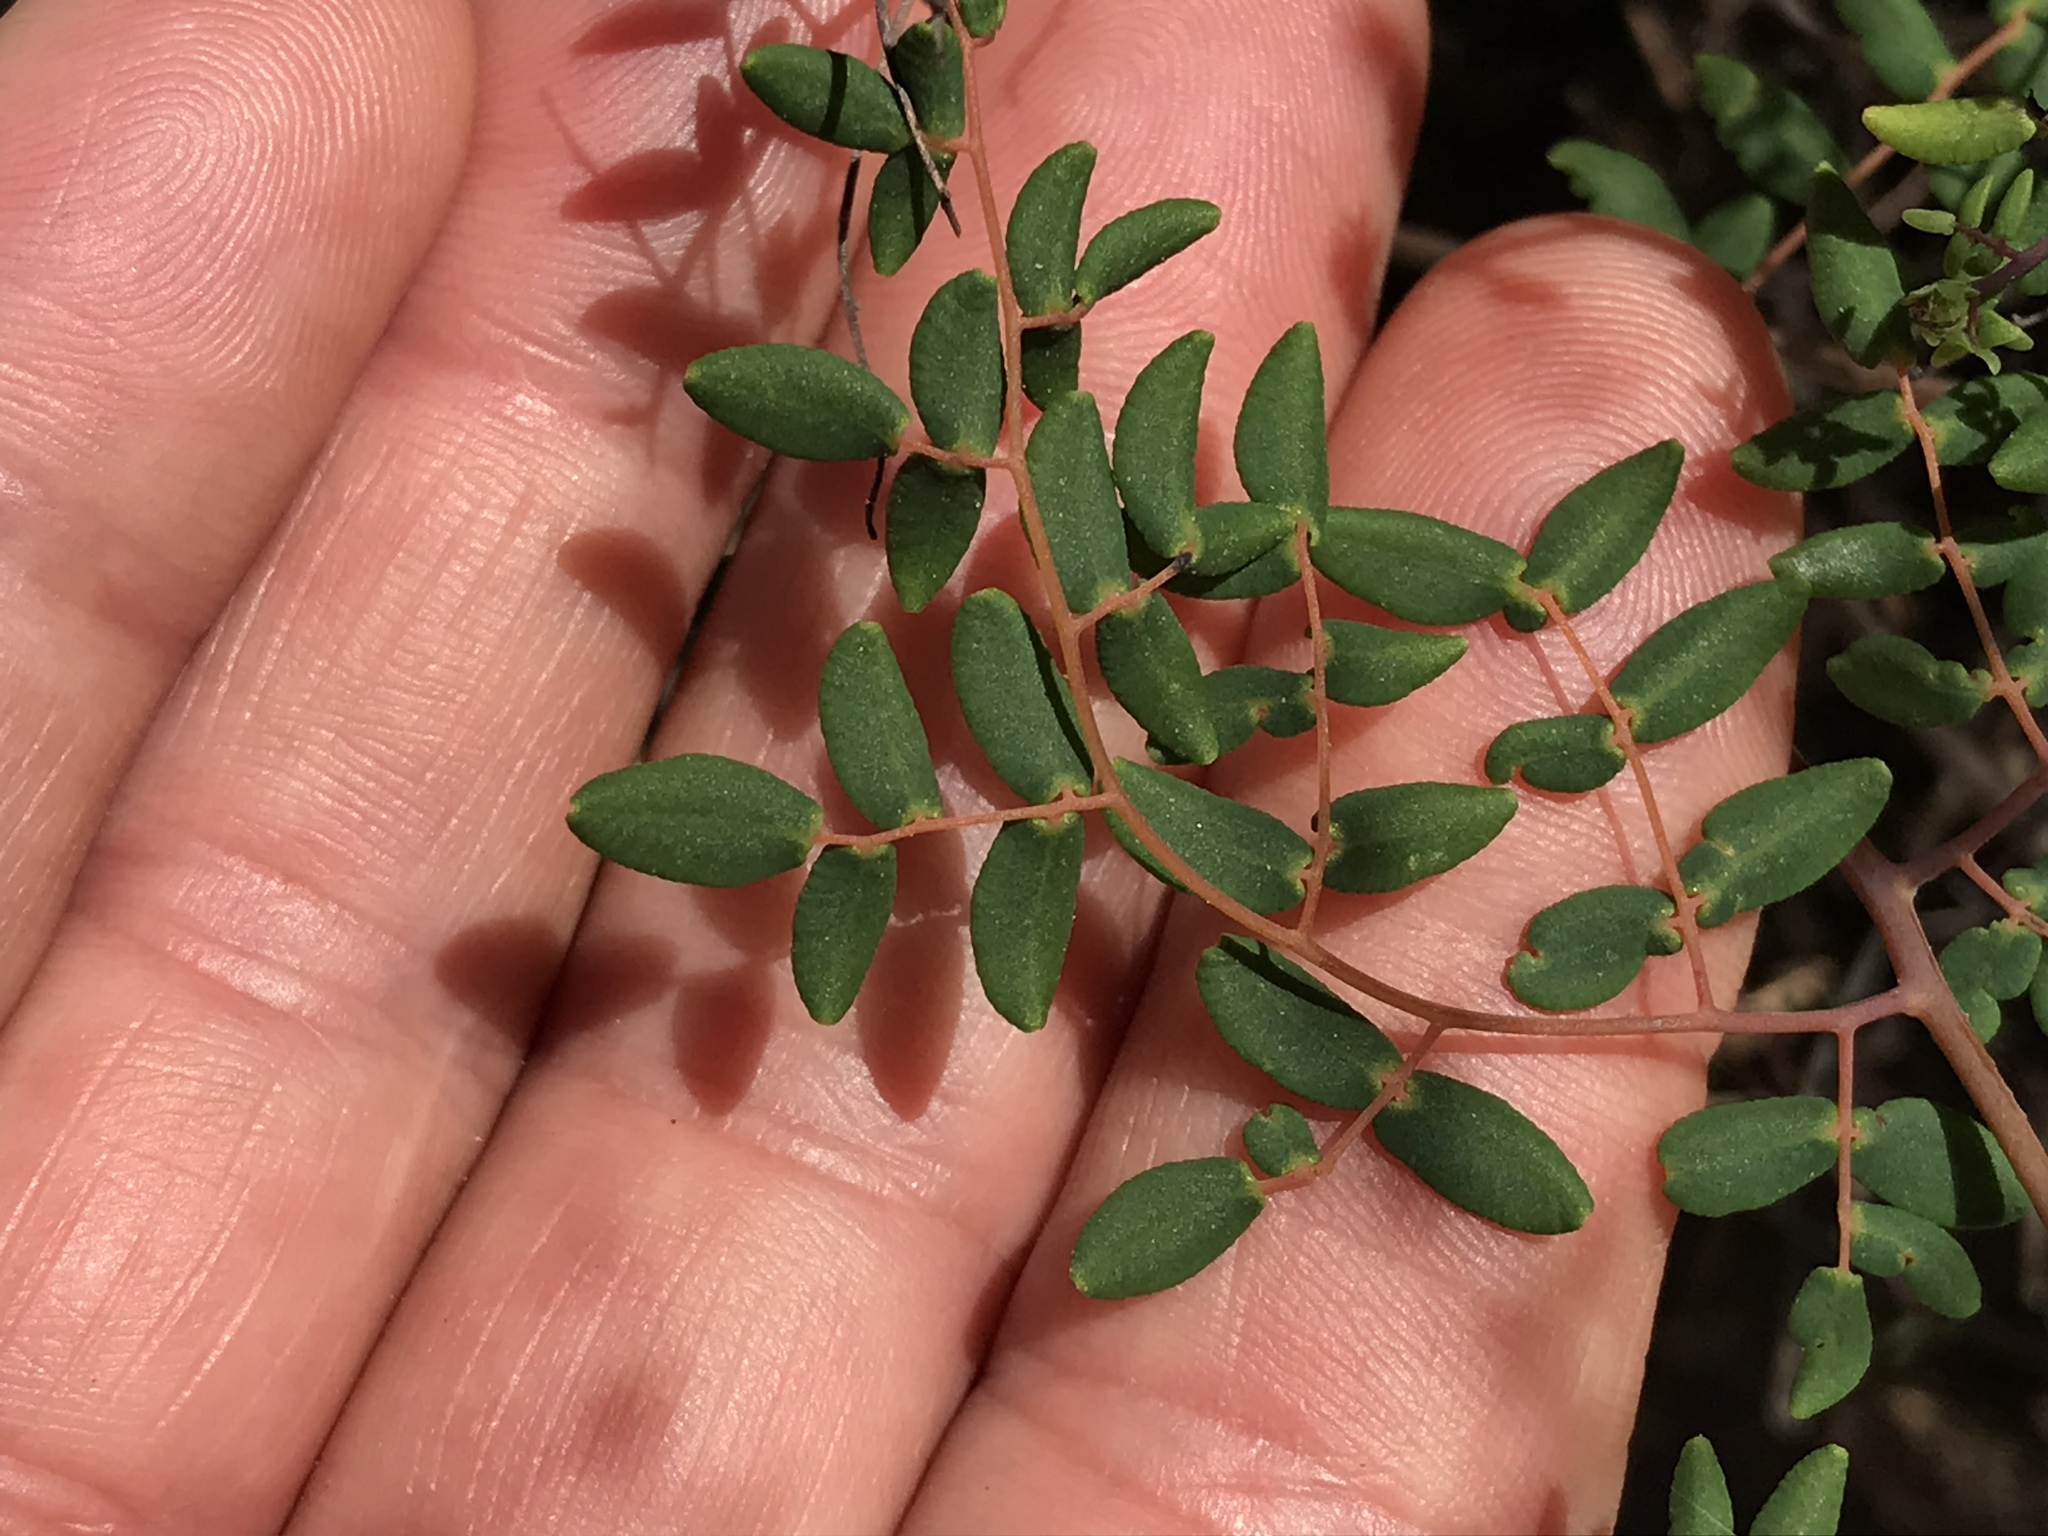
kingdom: Plantae
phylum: Tracheophyta
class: Polypodiopsida
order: Polypodiales
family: Pteridaceae
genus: Pellaea
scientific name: Pellaea andromedifolia
